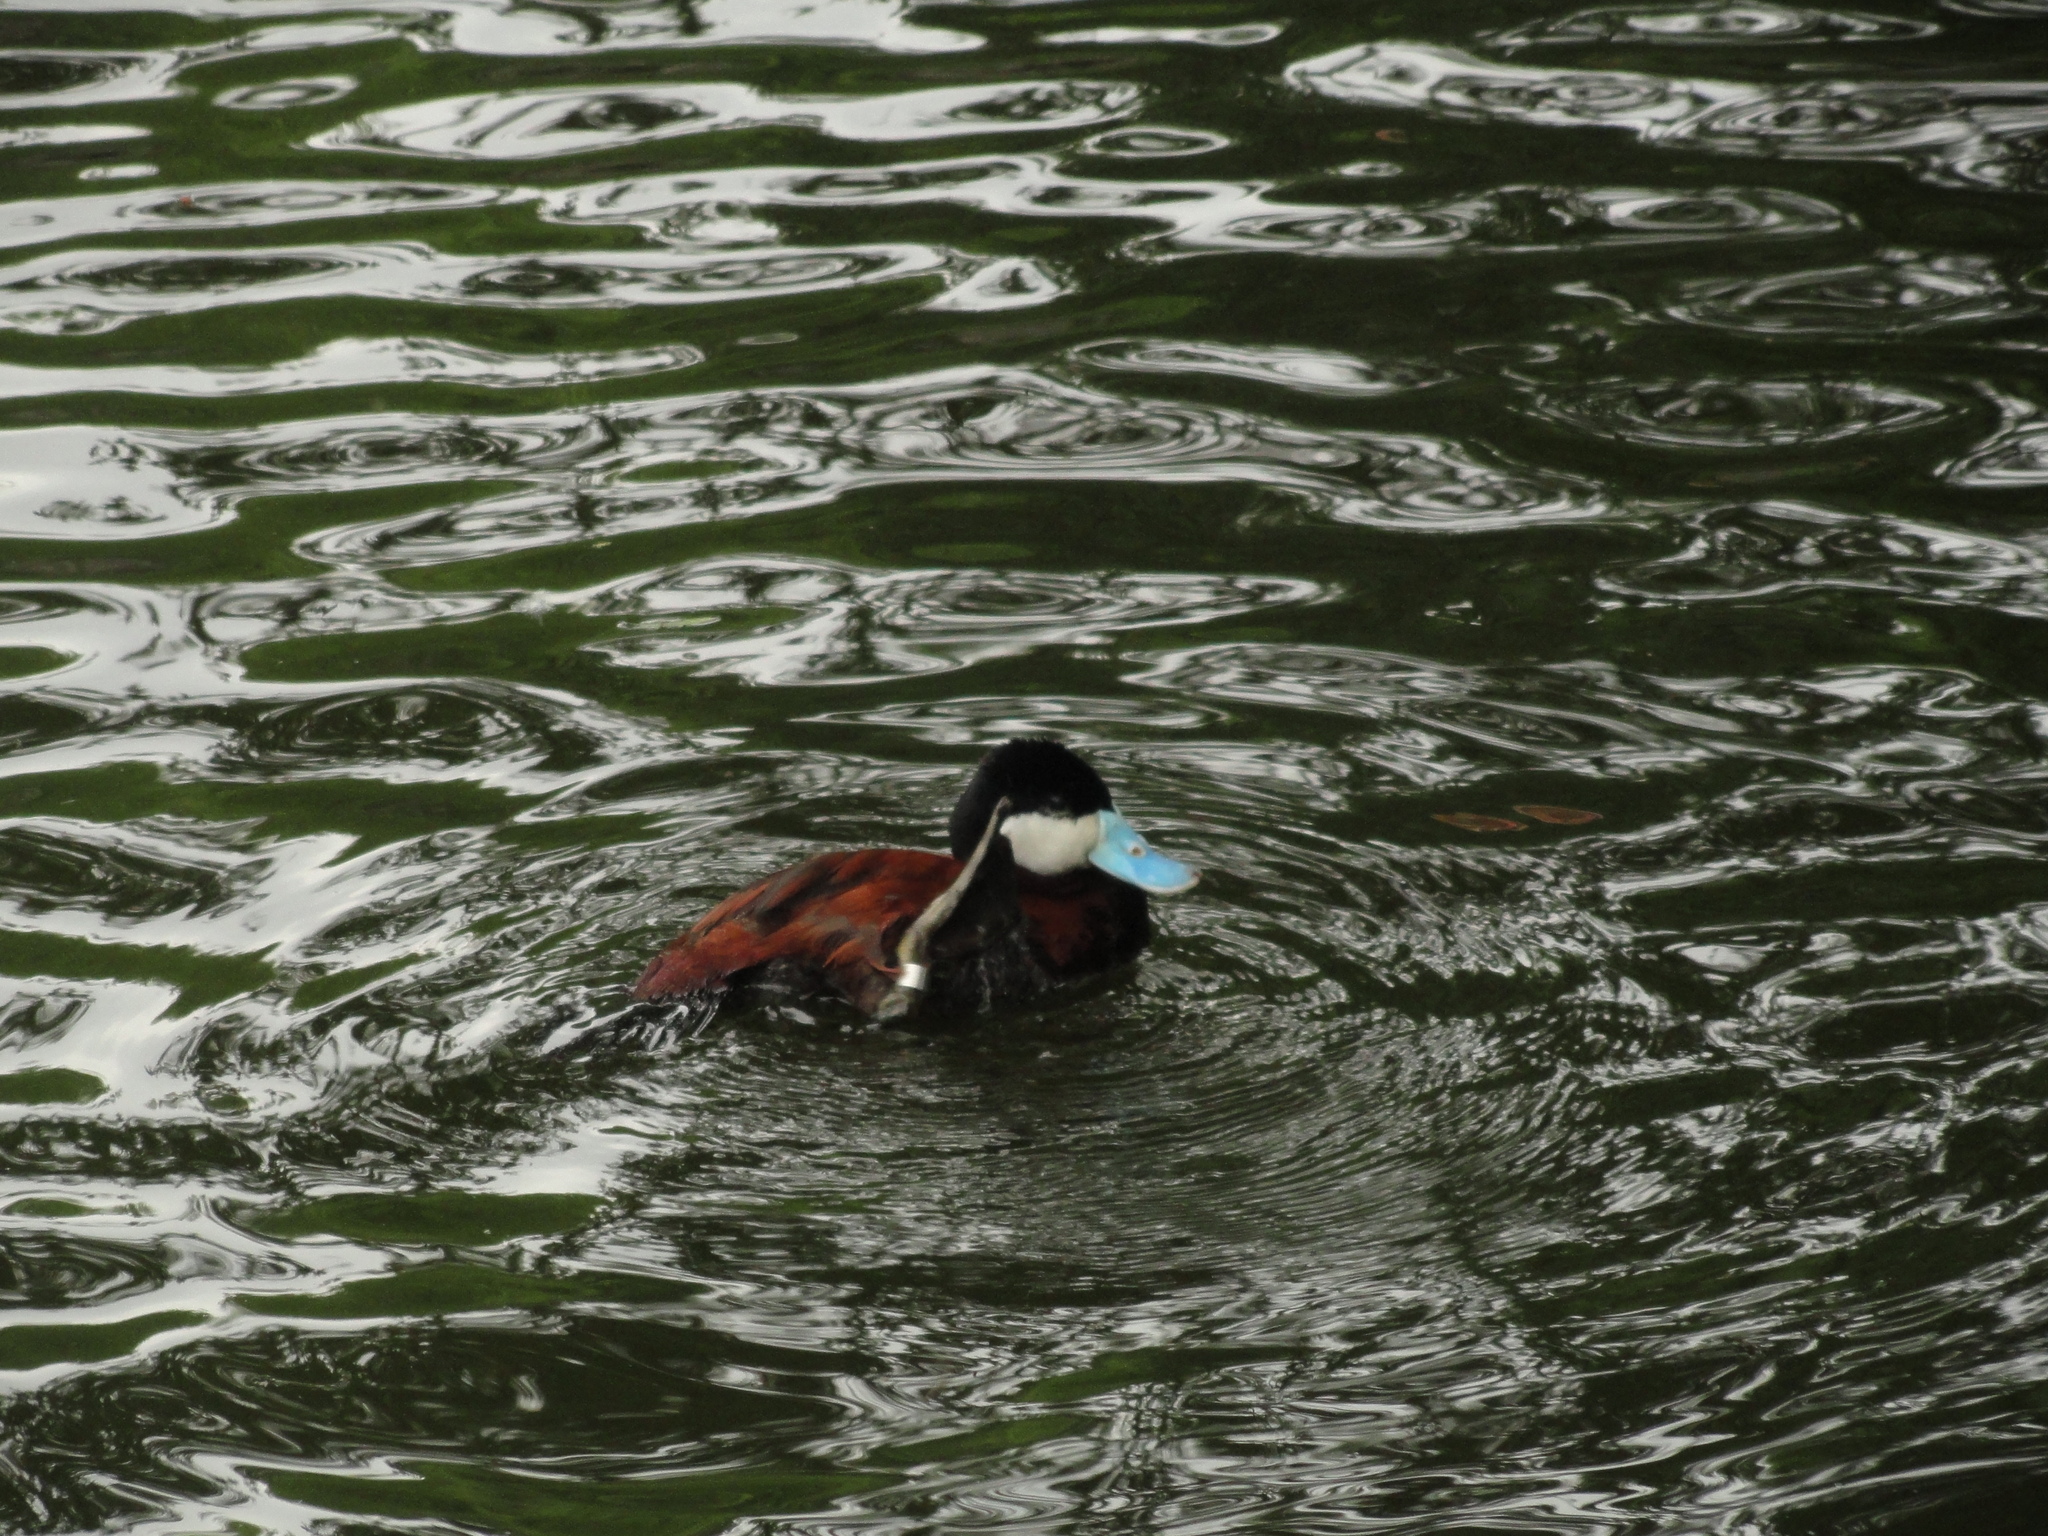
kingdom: Animalia
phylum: Chordata
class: Aves
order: Anseriformes
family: Anatidae
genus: Oxyura
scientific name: Oxyura jamaicensis
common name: Ruddy duck
